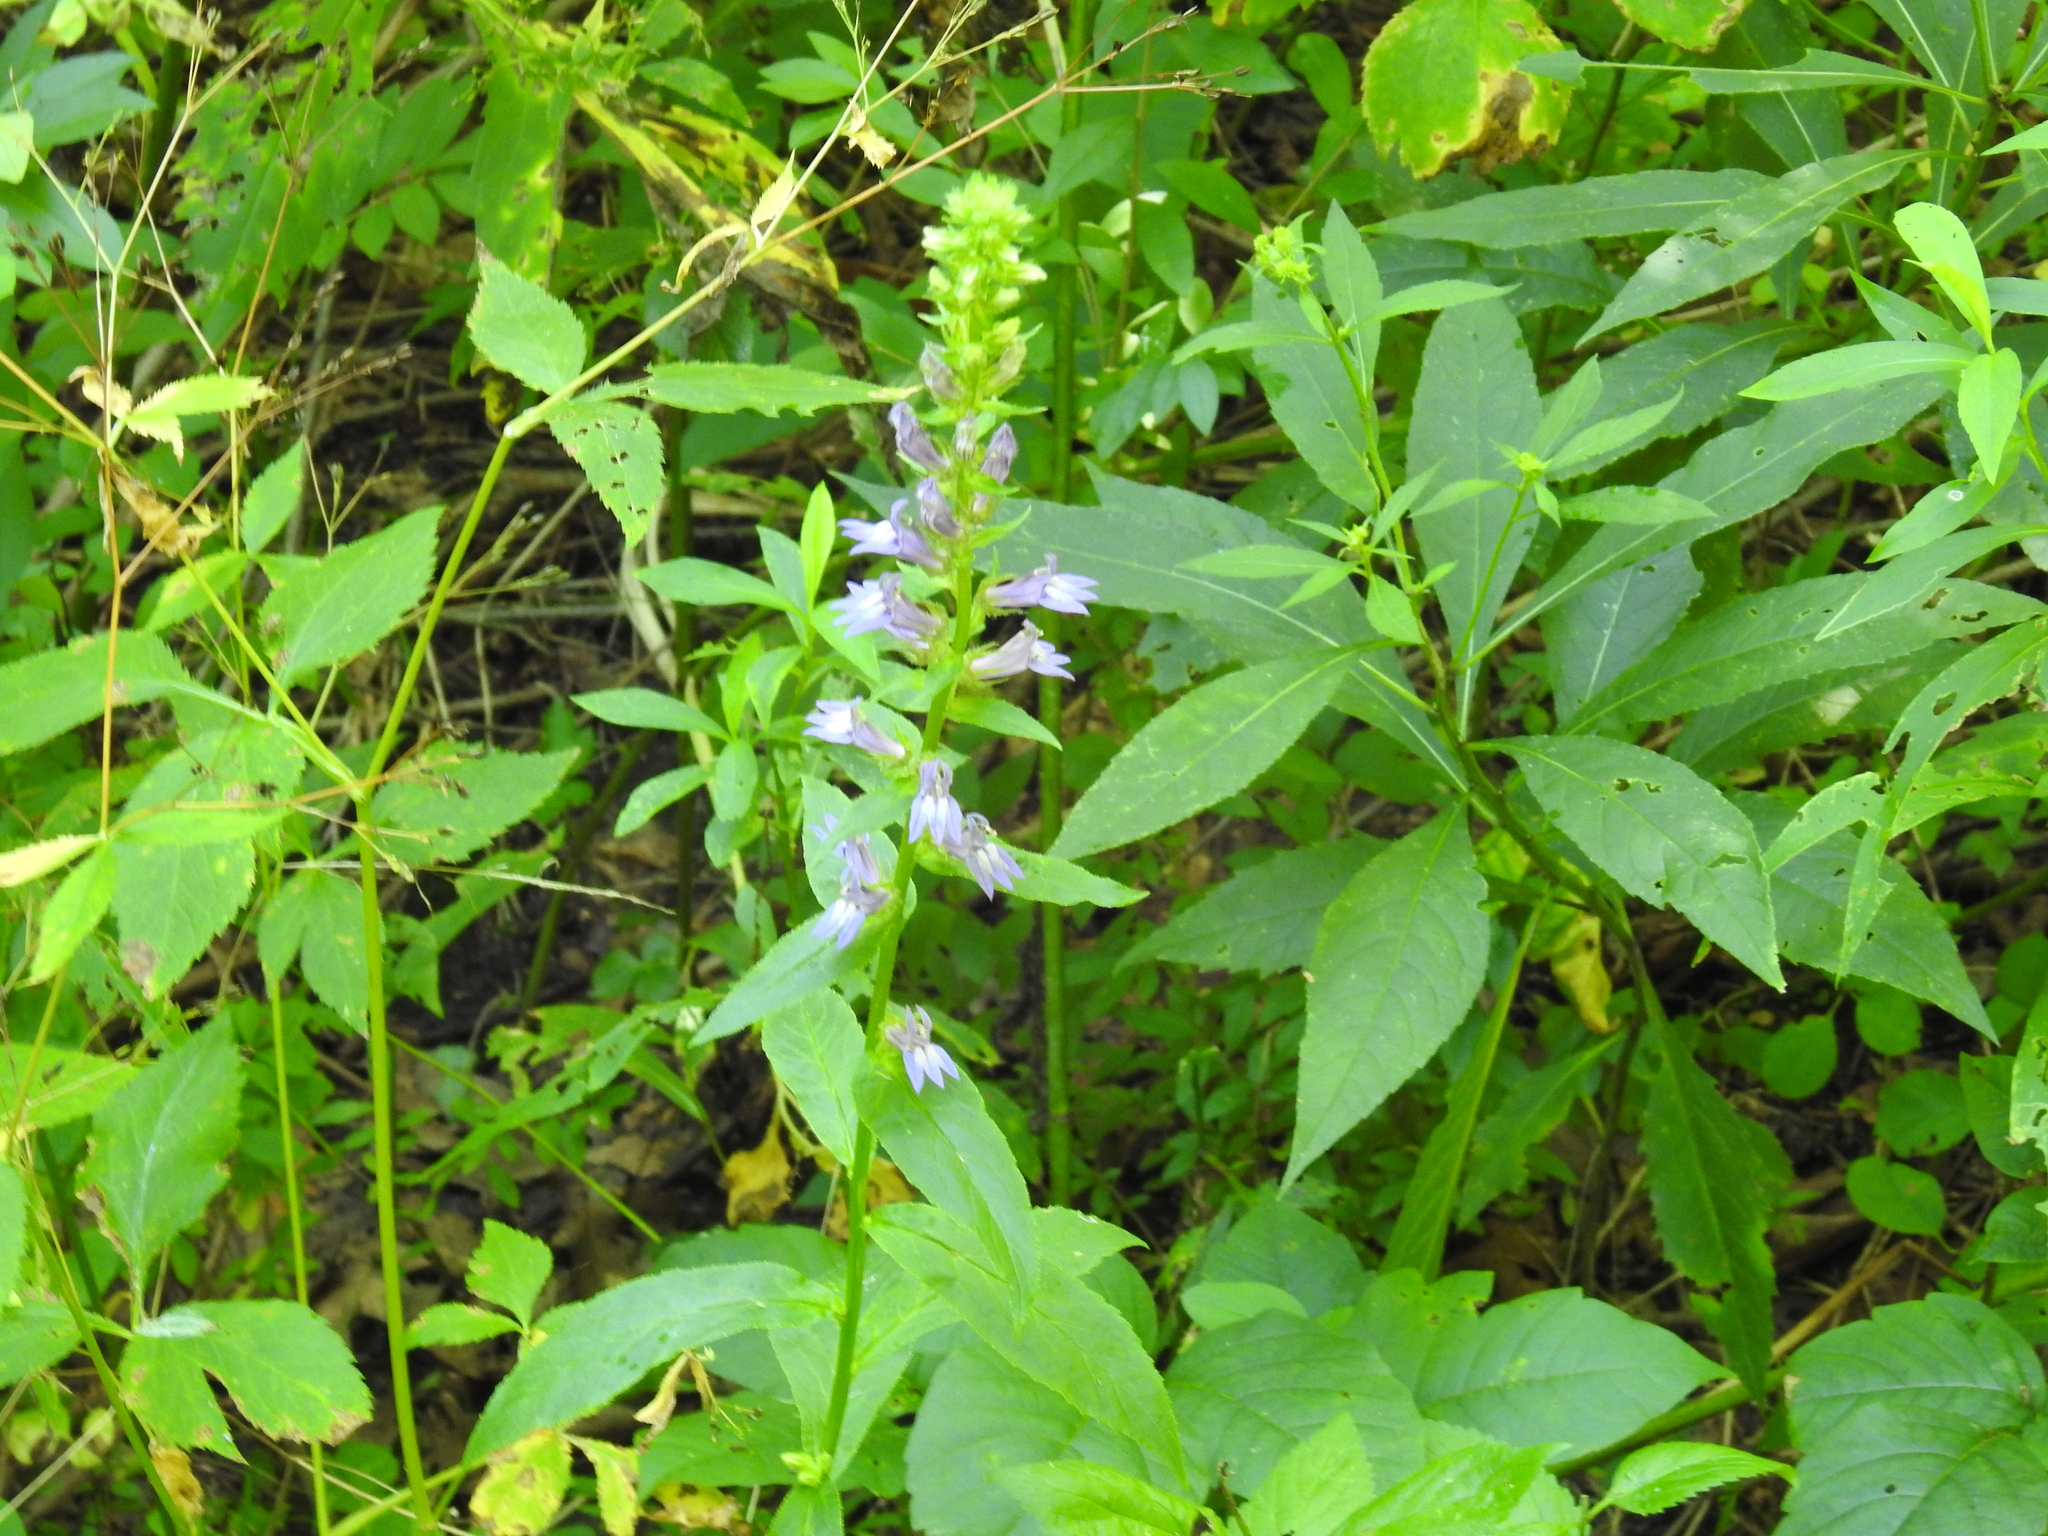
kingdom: Plantae
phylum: Tracheophyta
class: Magnoliopsida
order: Asterales
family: Campanulaceae
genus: Lobelia
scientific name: Lobelia siphilitica
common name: Great lobelia
